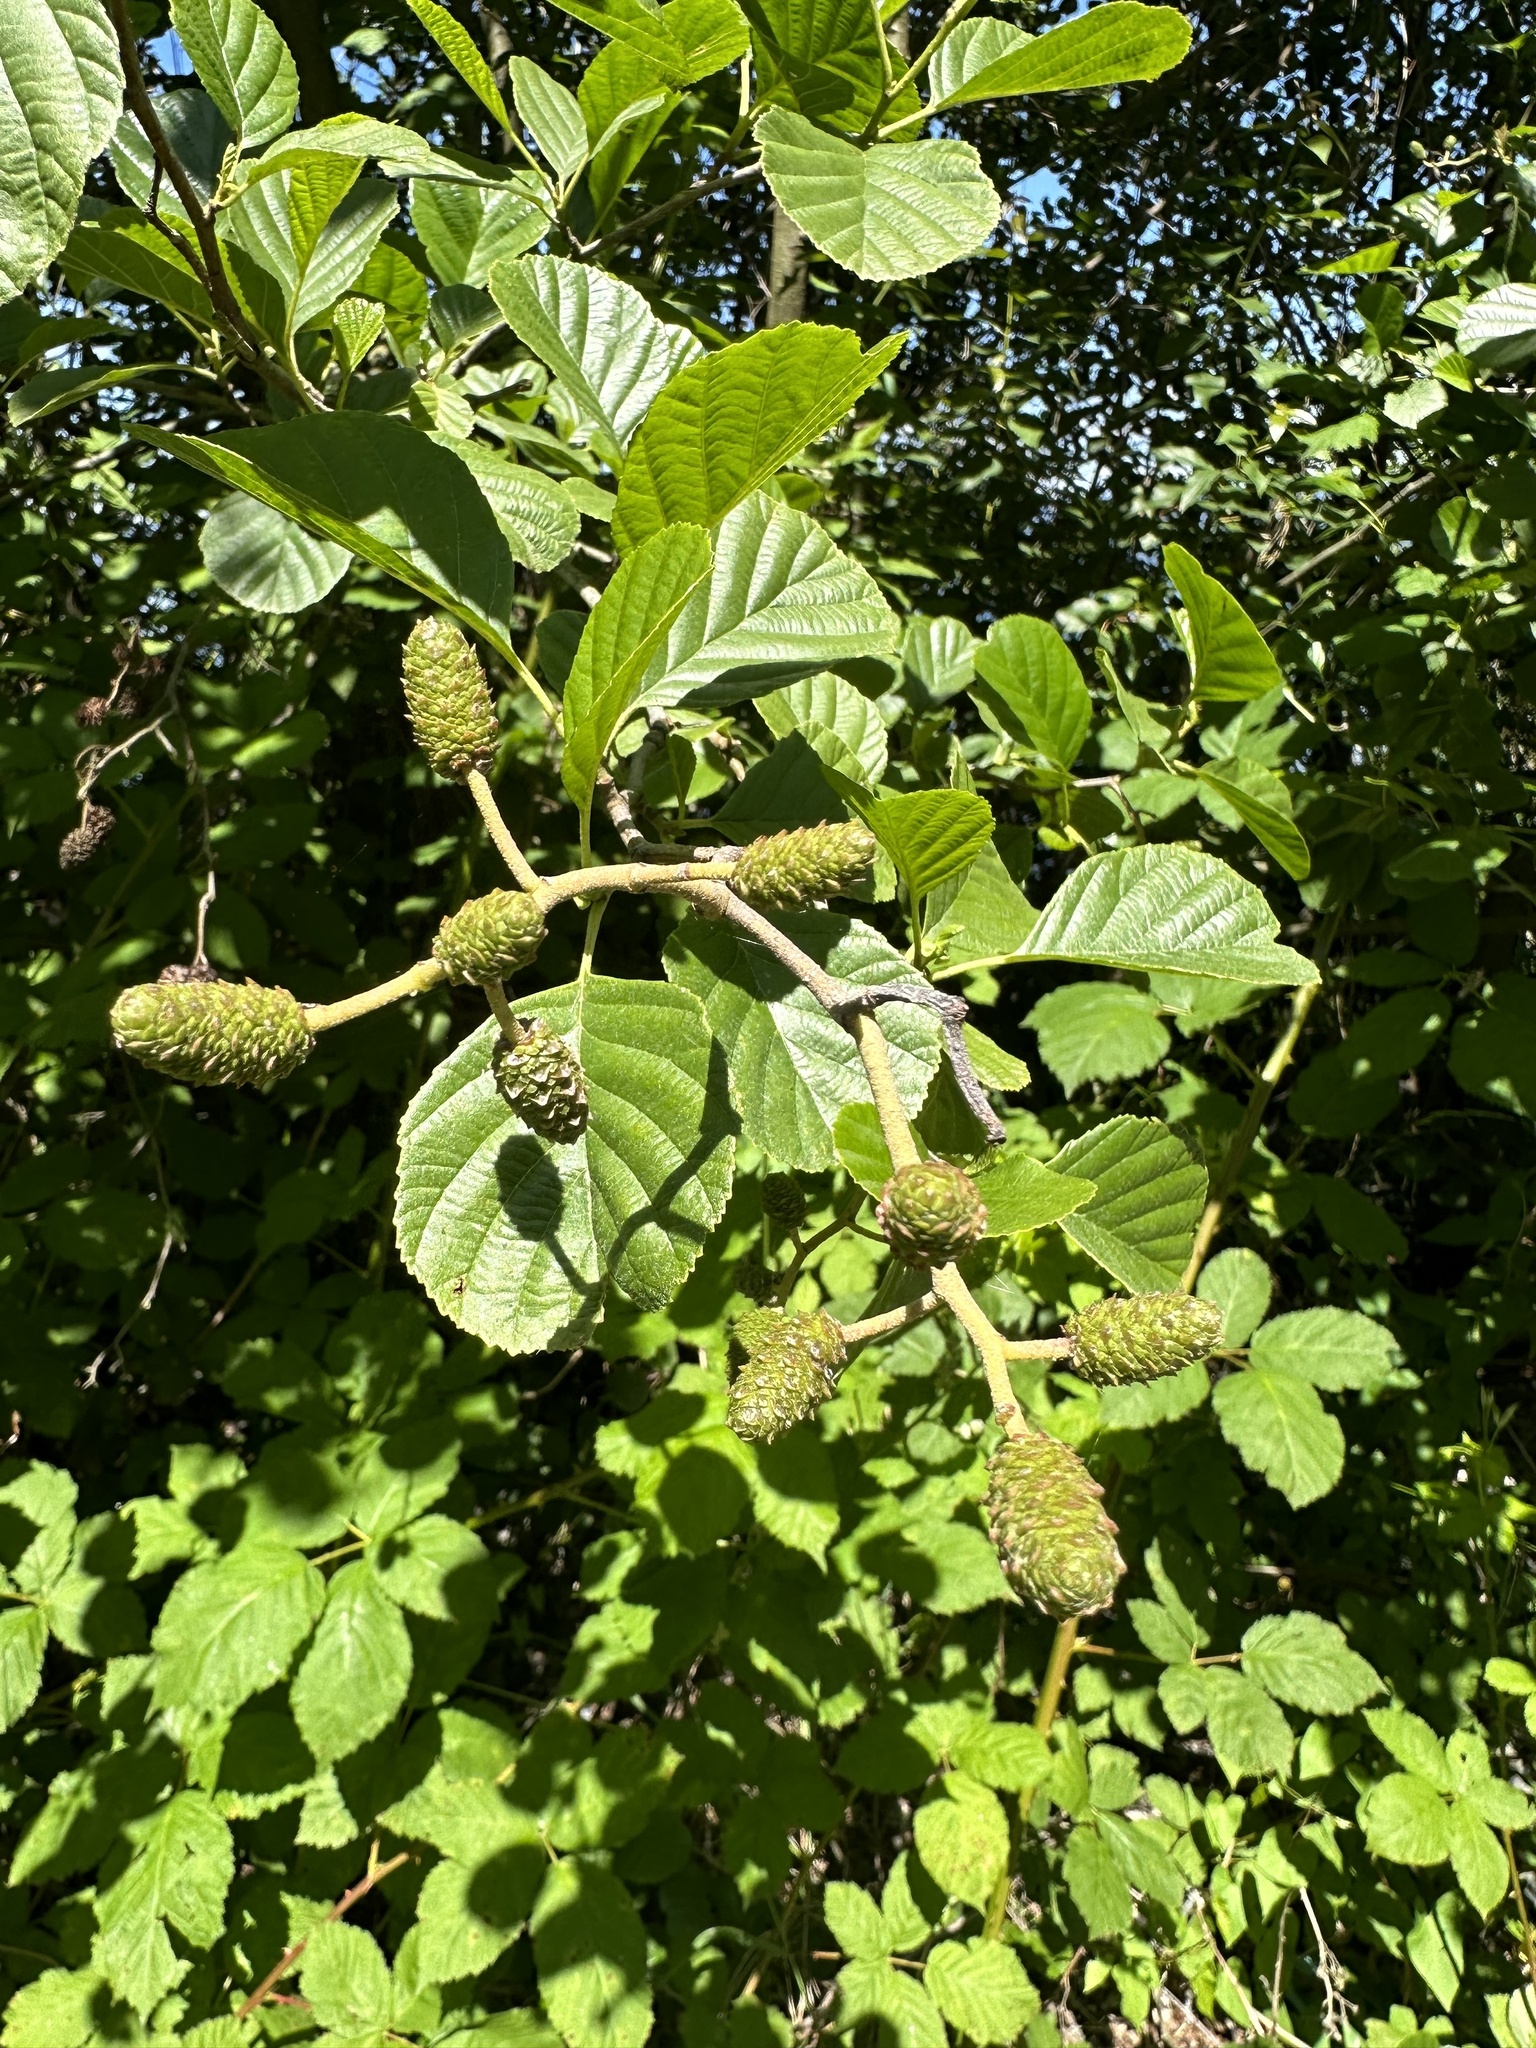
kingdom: Plantae
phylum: Tracheophyta
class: Magnoliopsida
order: Fagales
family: Betulaceae
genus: Alnus
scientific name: Alnus glutinosa
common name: Black alder
